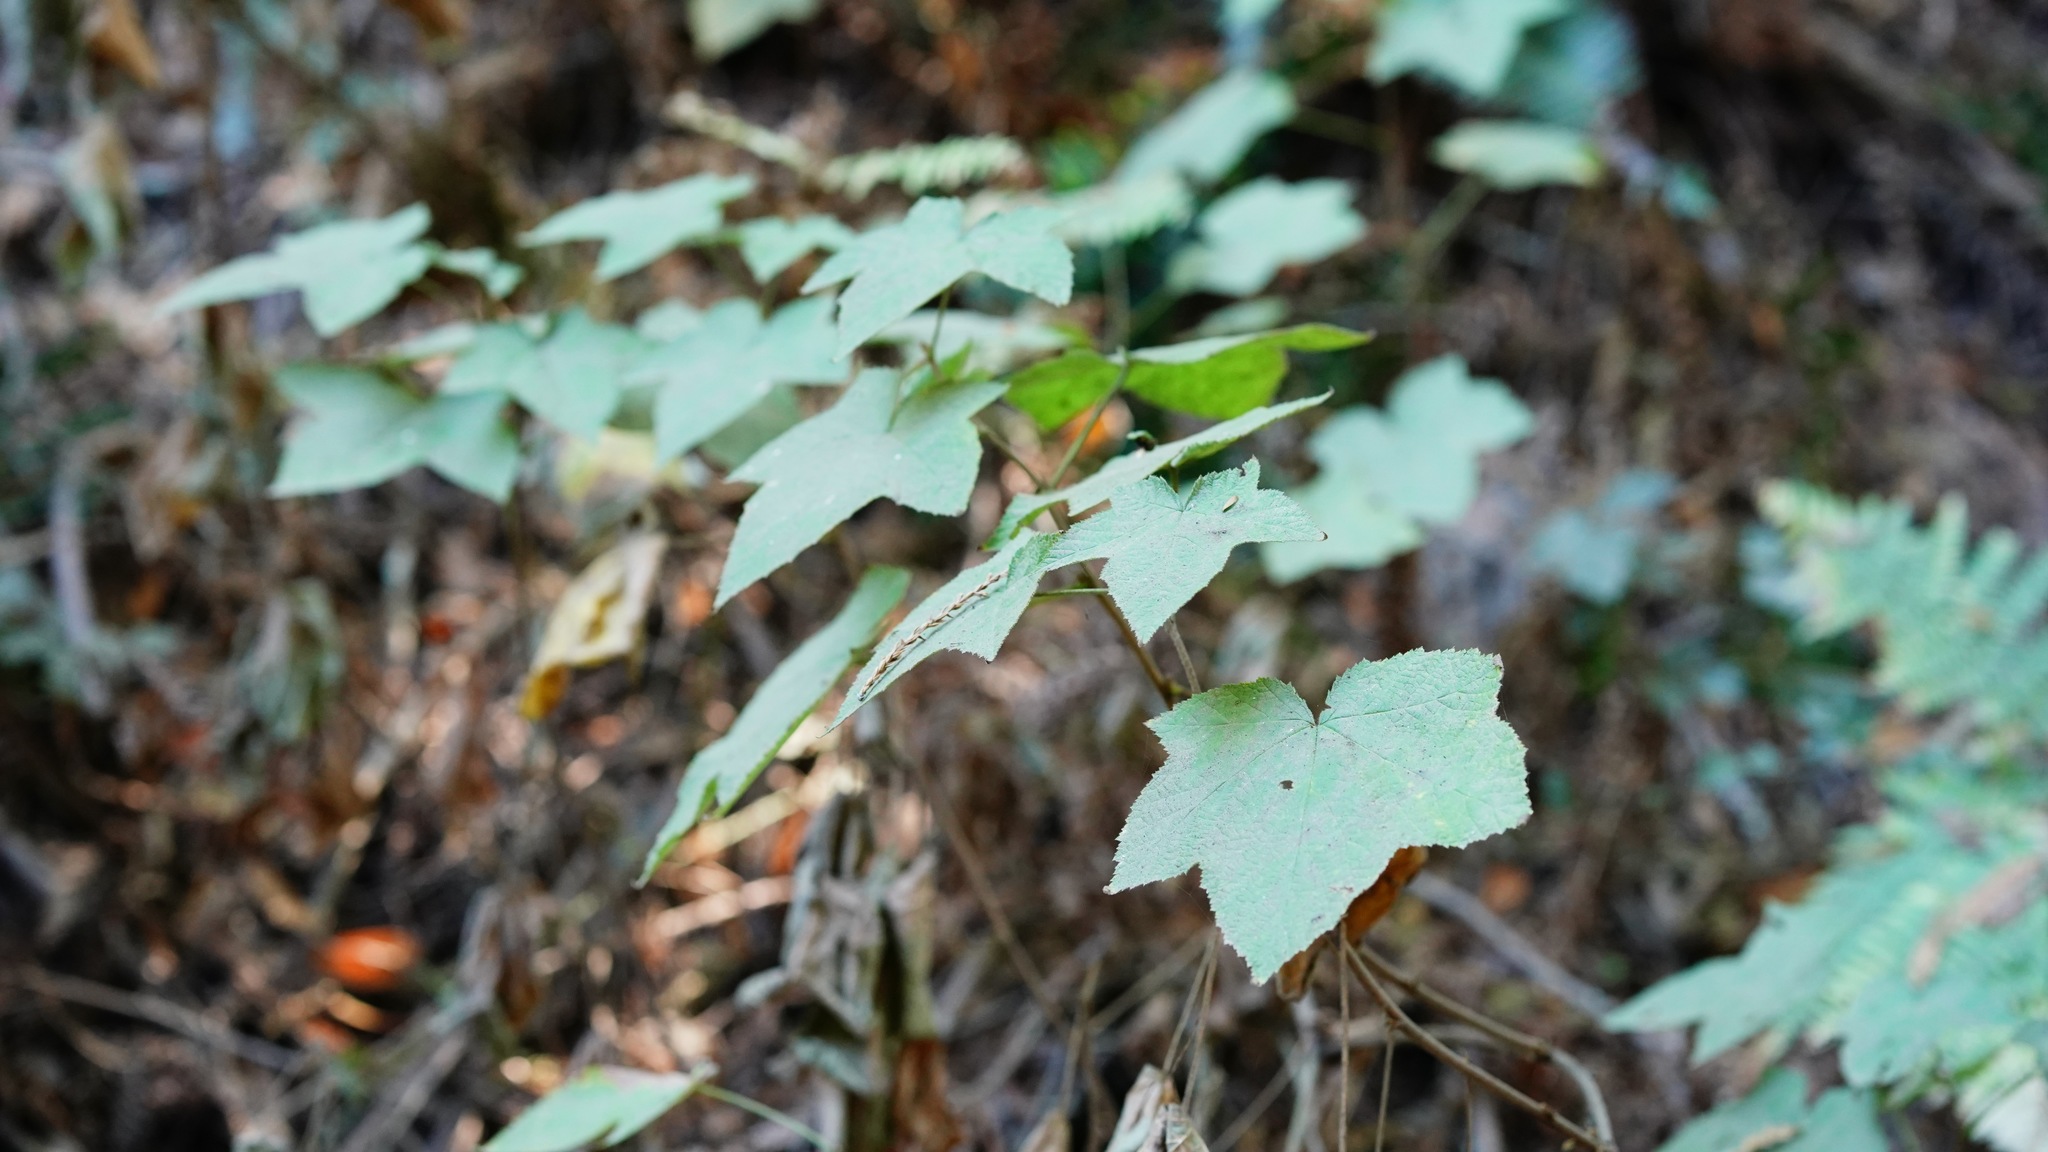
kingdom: Plantae
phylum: Tracheophyta
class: Magnoliopsida
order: Rosales
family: Rosaceae
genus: Rubus
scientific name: Rubus parviflorus
